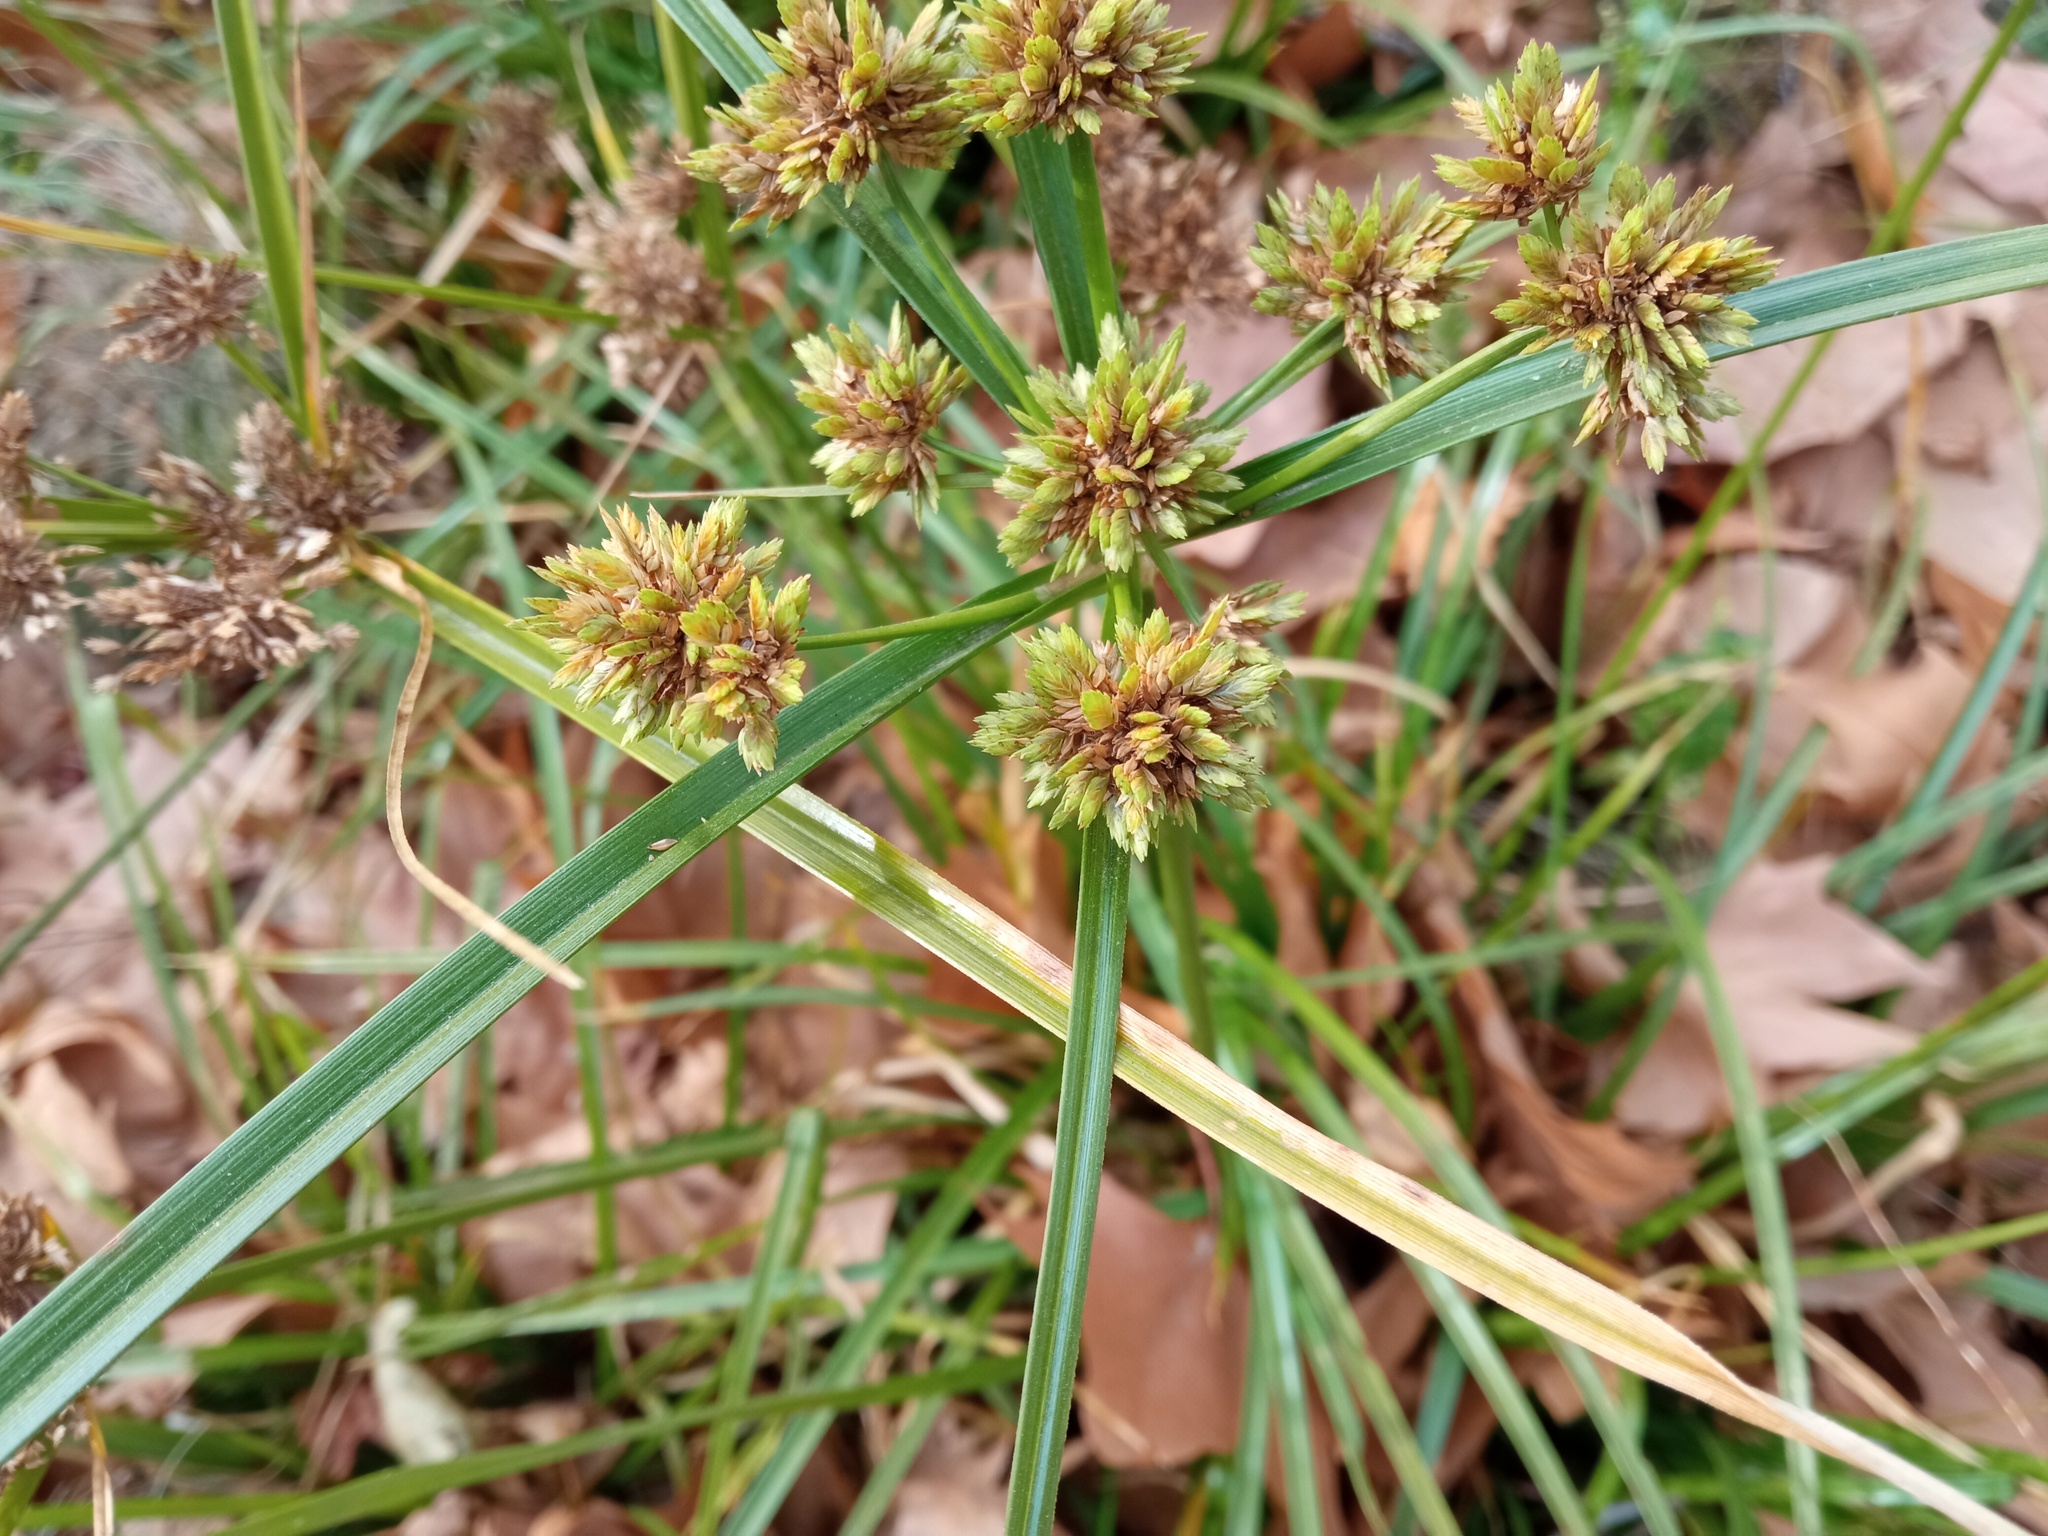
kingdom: Plantae
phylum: Tracheophyta
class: Liliopsida
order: Poales
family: Cyperaceae
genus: Cyperus
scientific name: Cyperus eragrostis
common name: Tall flatsedge
